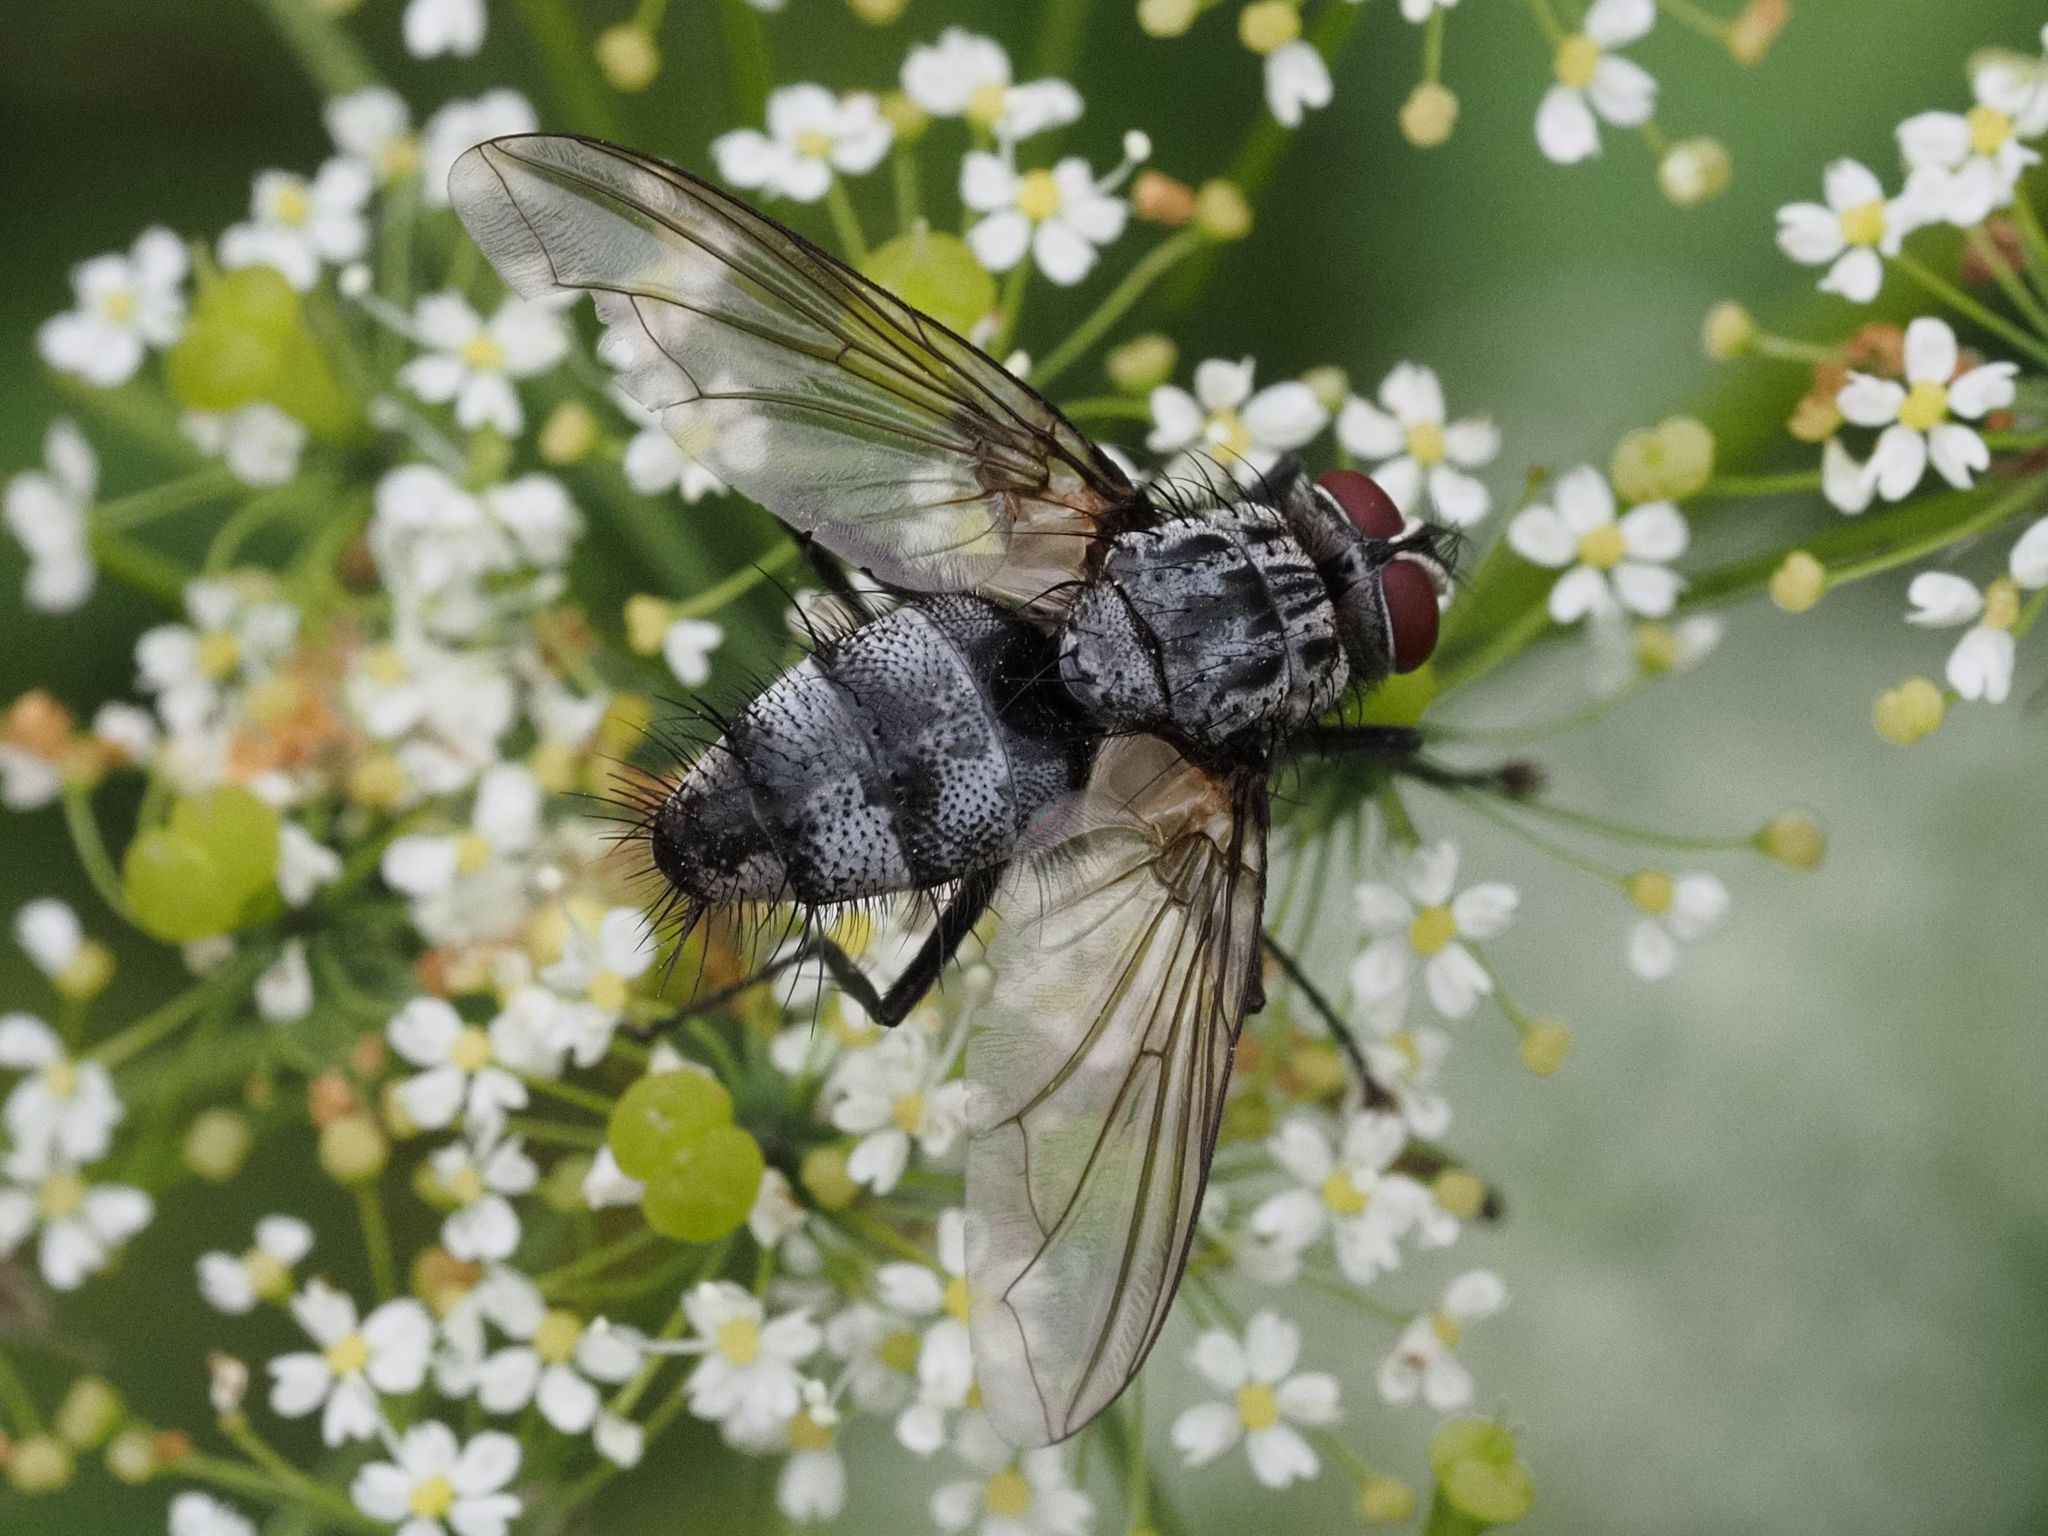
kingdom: Animalia
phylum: Arthropoda
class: Insecta
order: Diptera
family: Tachinidae
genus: Dinera
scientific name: Dinera ferina
